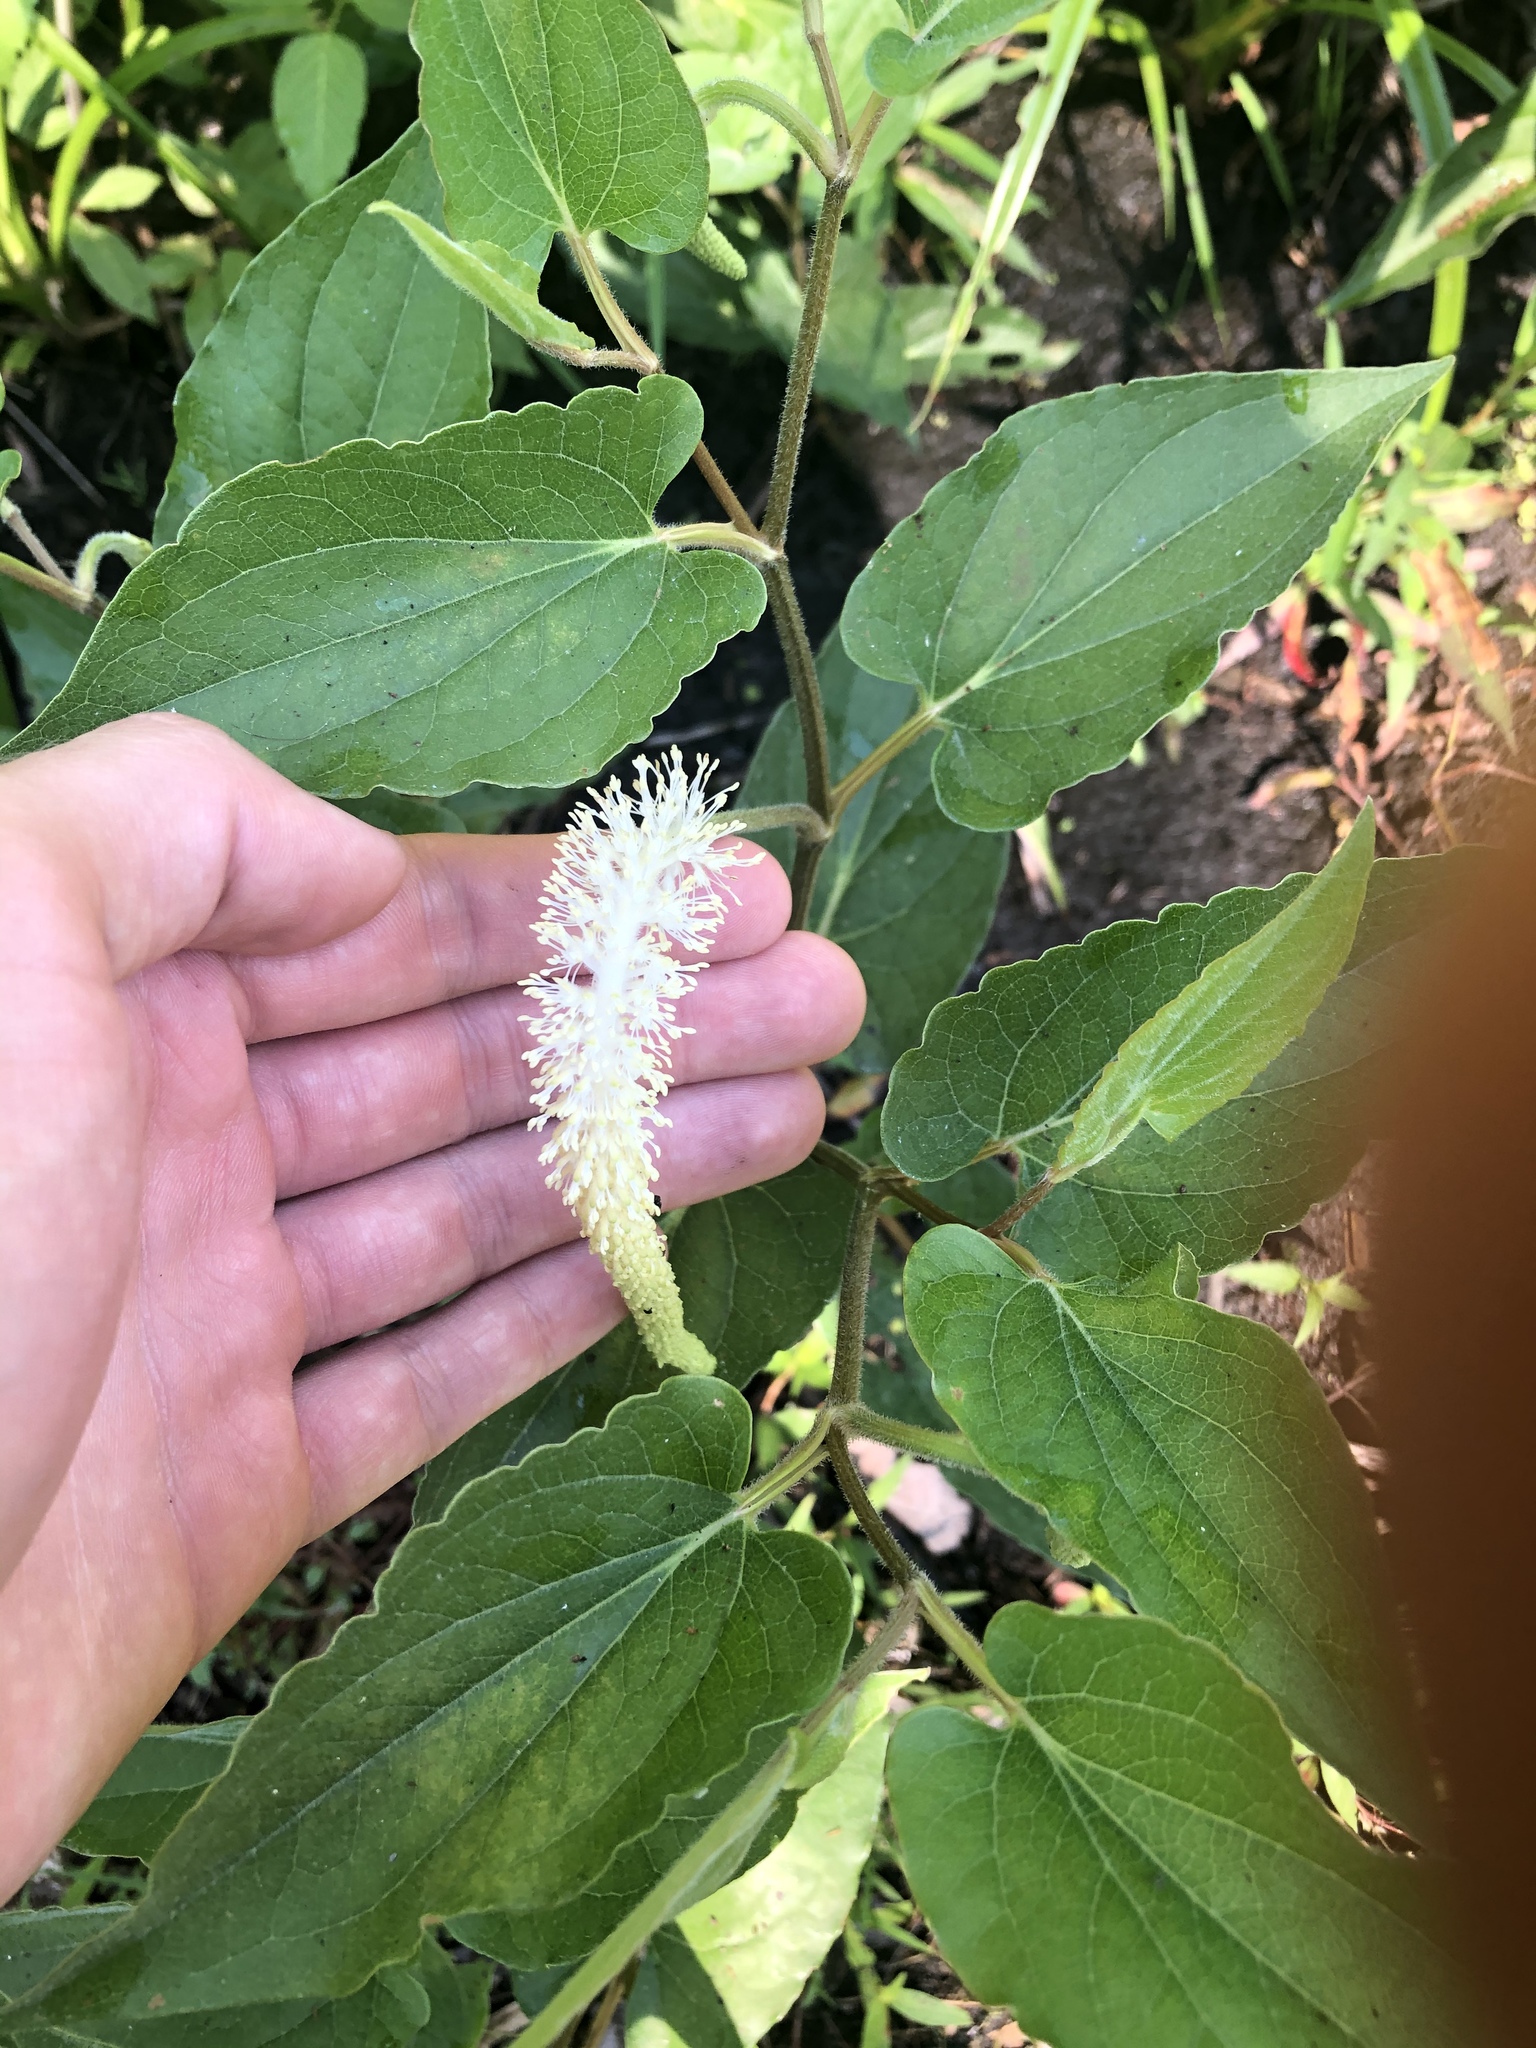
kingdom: Plantae
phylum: Tracheophyta
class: Magnoliopsida
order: Piperales
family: Saururaceae
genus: Saururus
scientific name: Saururus cernuus
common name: Lizard's-tail
